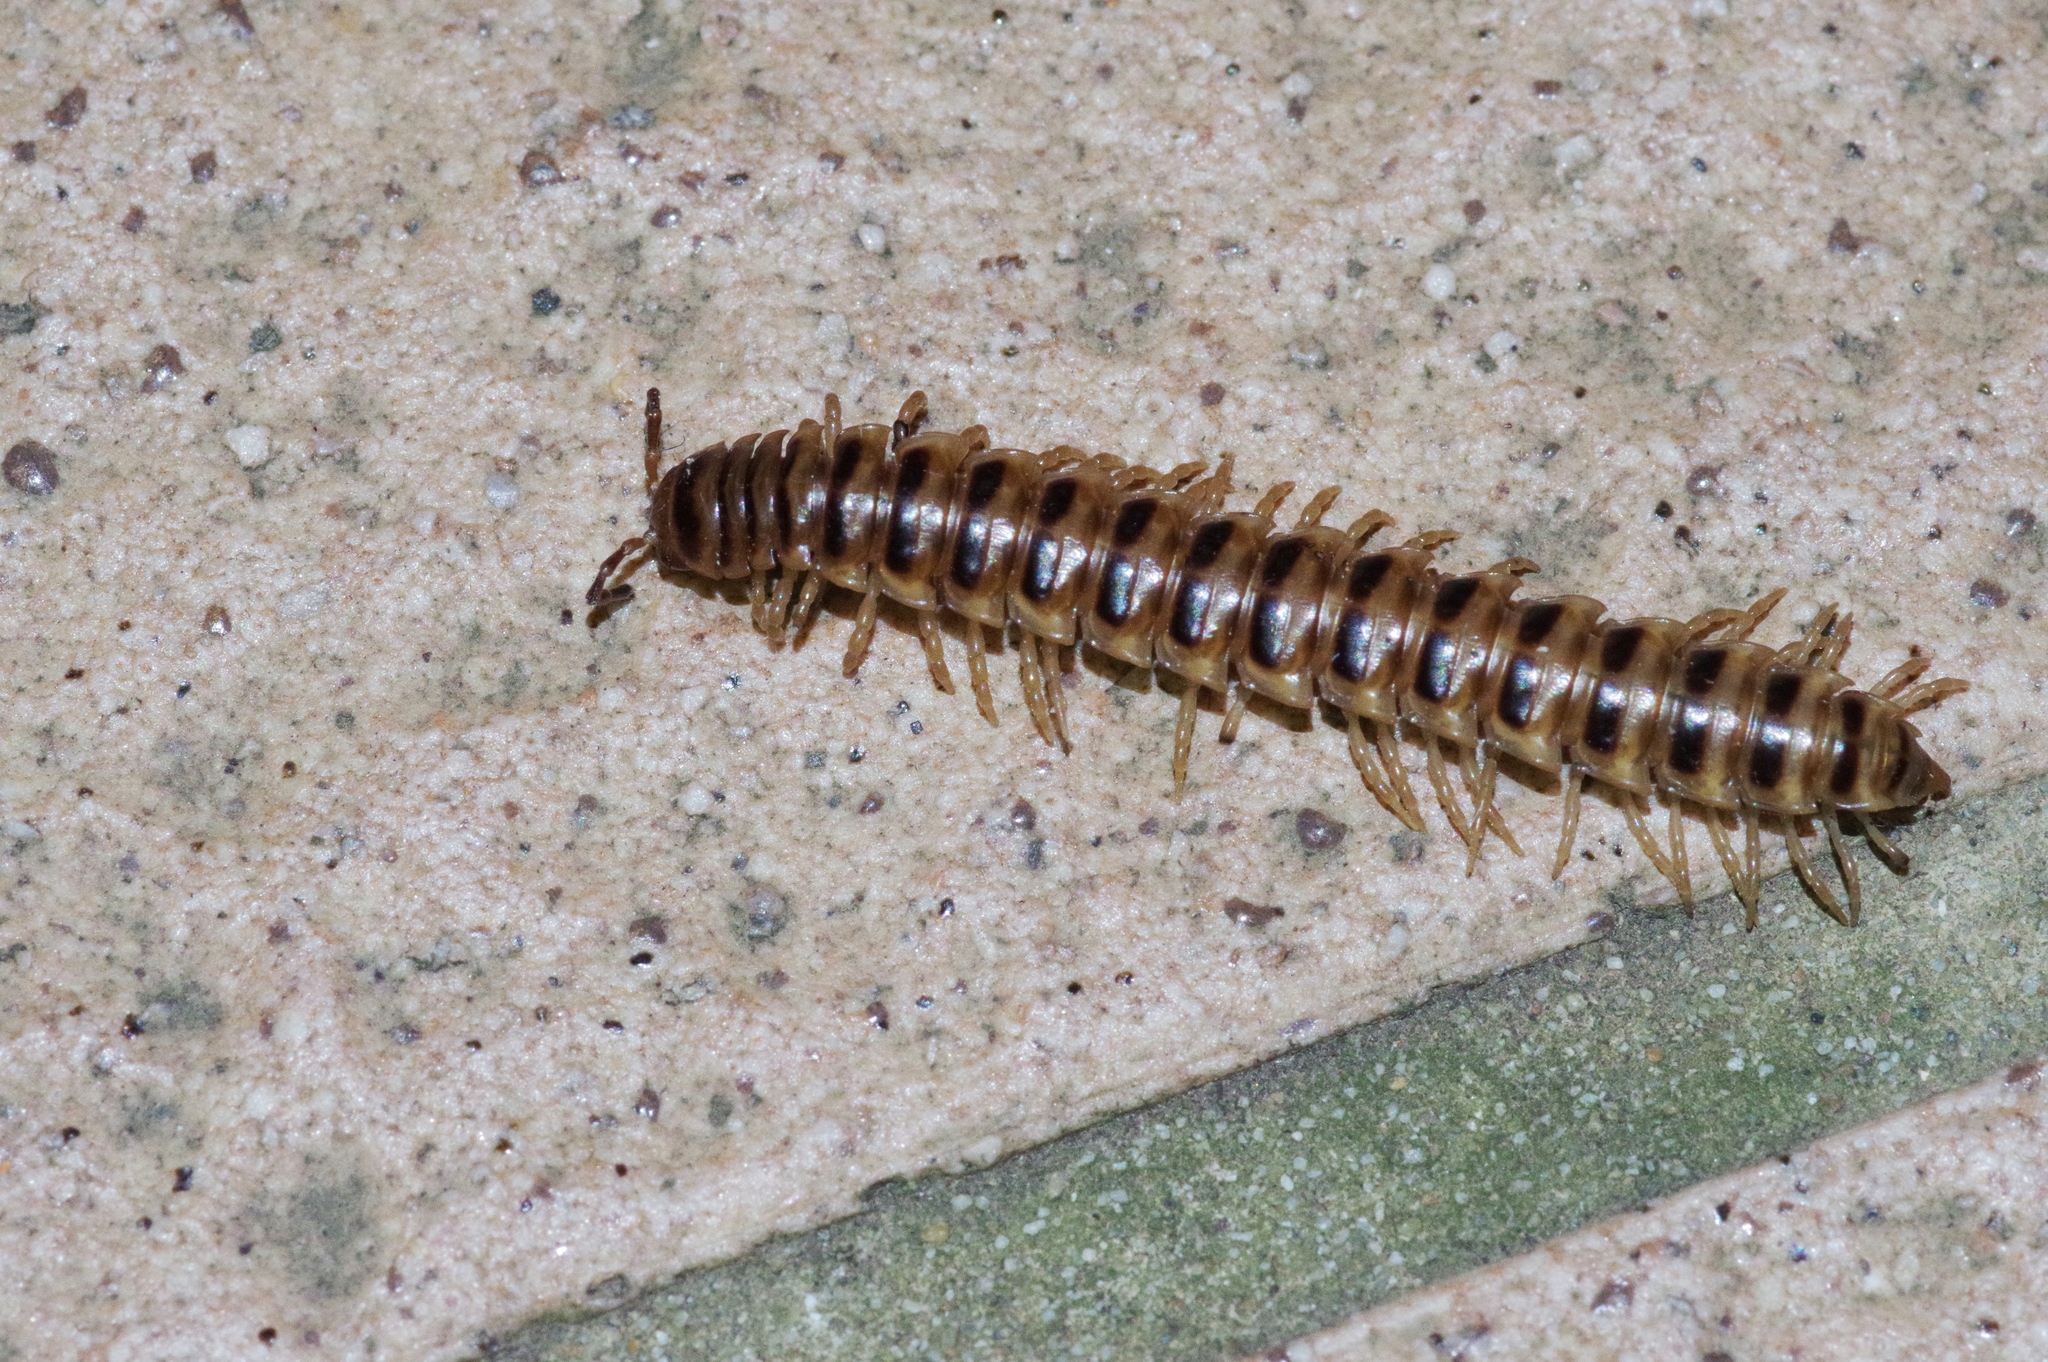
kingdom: Animalia
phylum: Arthropoda
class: Diplopoda
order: Polydesmida
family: Paradoxosomatidae
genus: Chamberlinius
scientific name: Chamberlinius hualienensis
